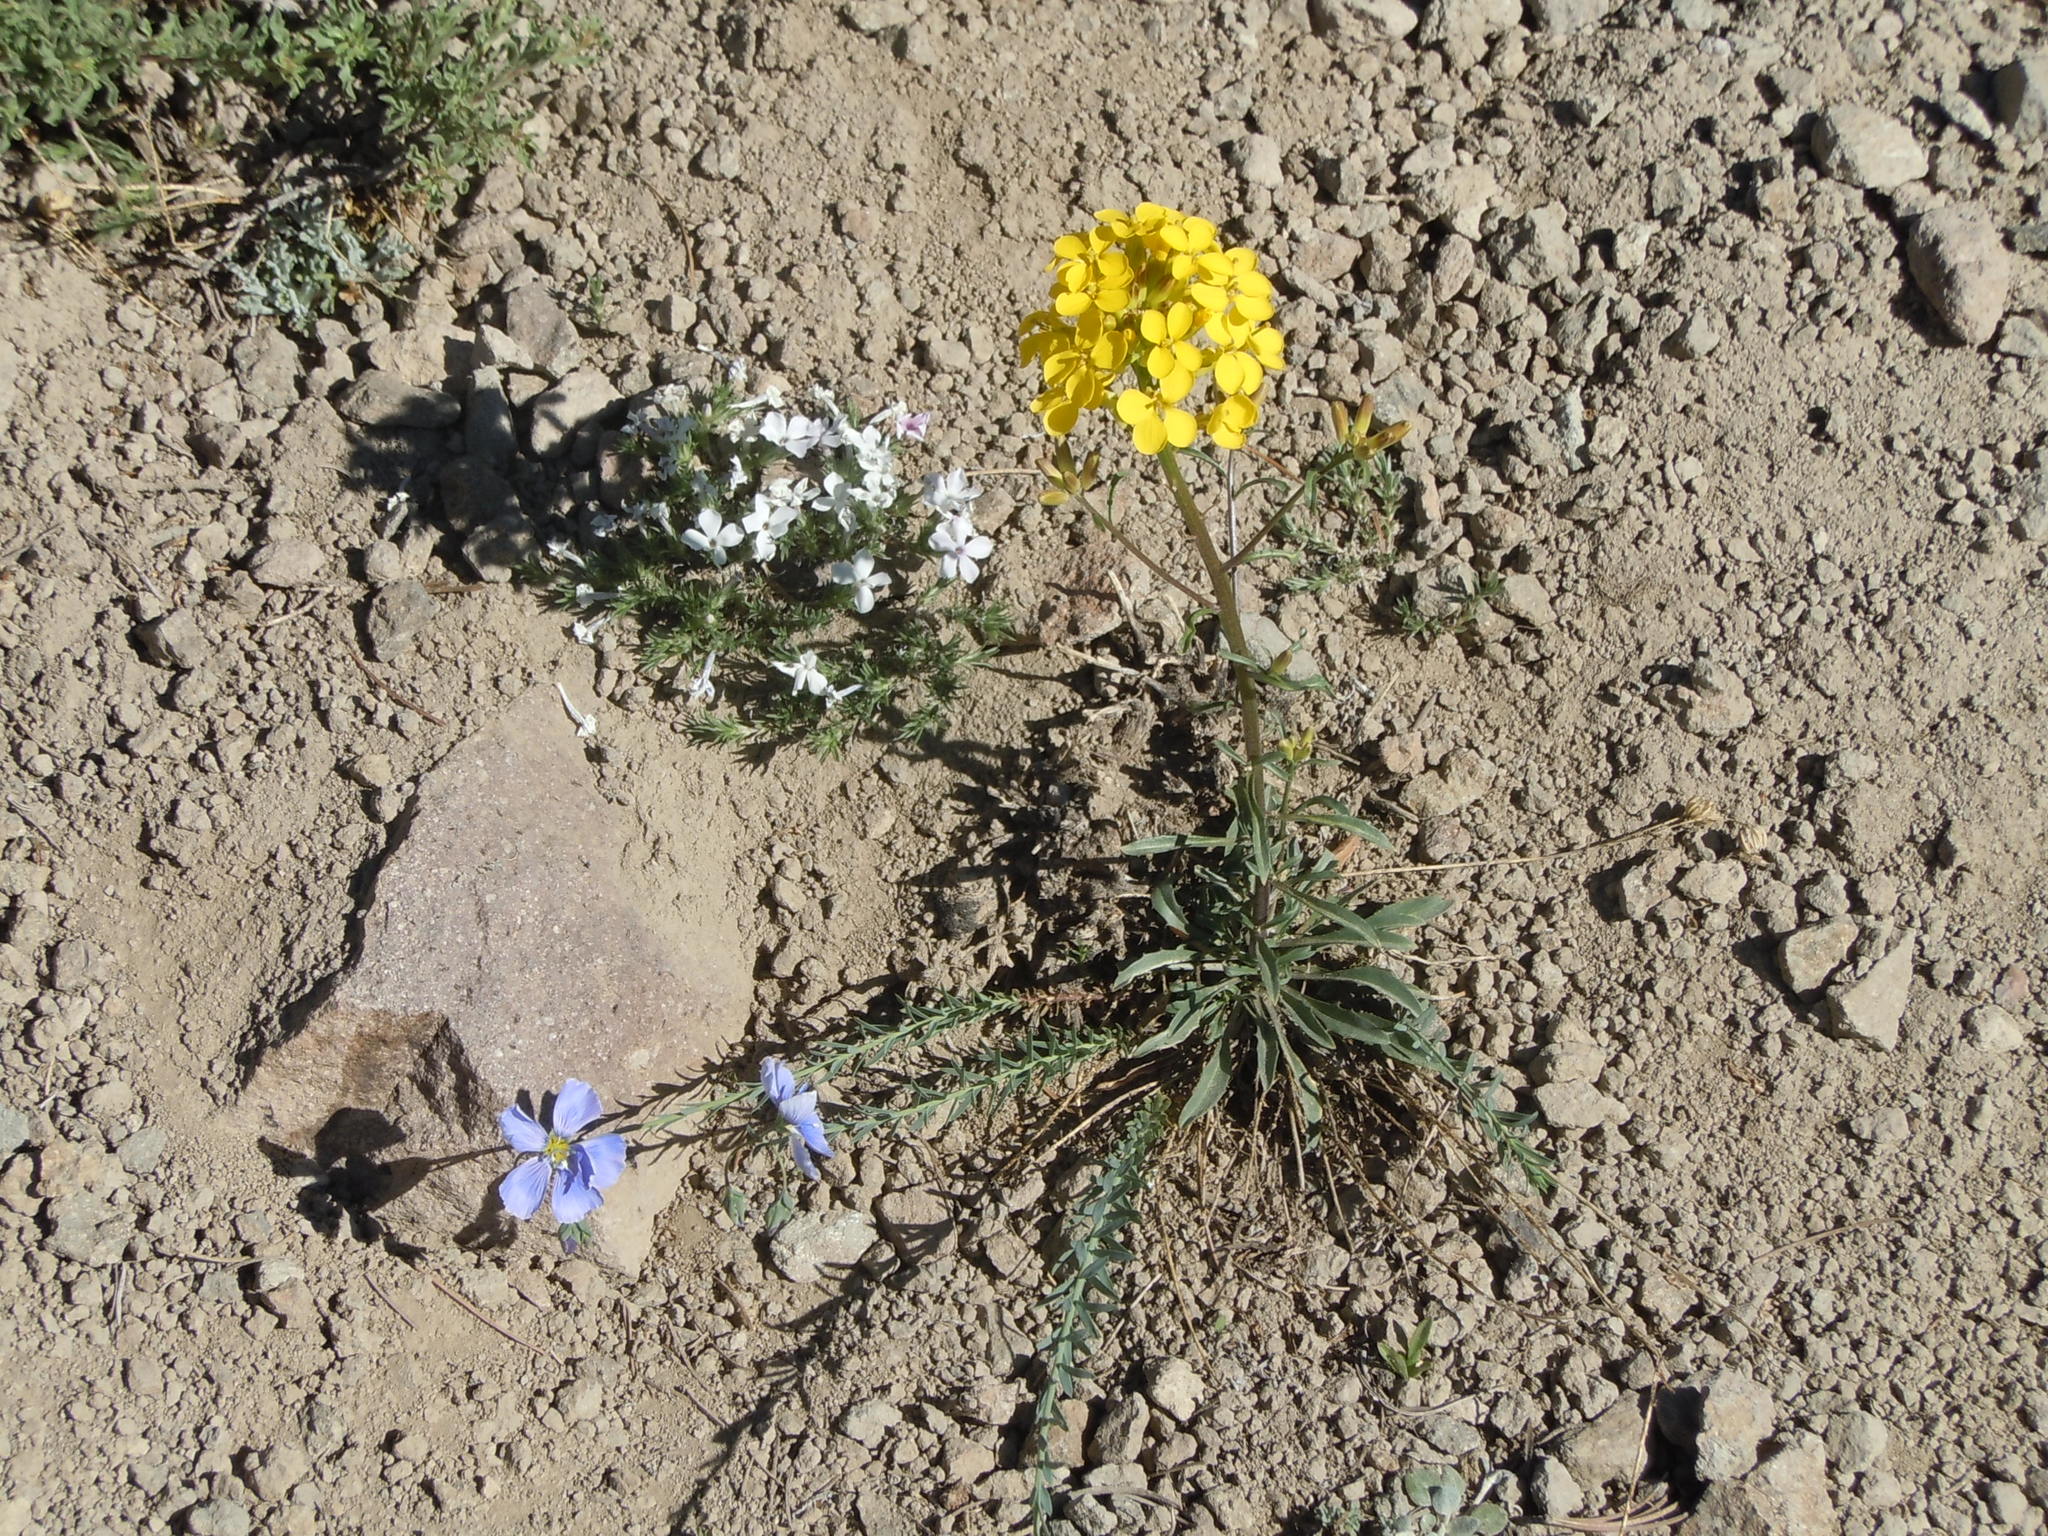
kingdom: Plantae
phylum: Tracheophyta
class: Magnoliopsida
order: Brassicales
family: Brassicaceae
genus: Erysimum
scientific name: Erysimum capitatum
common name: Western wallflower
